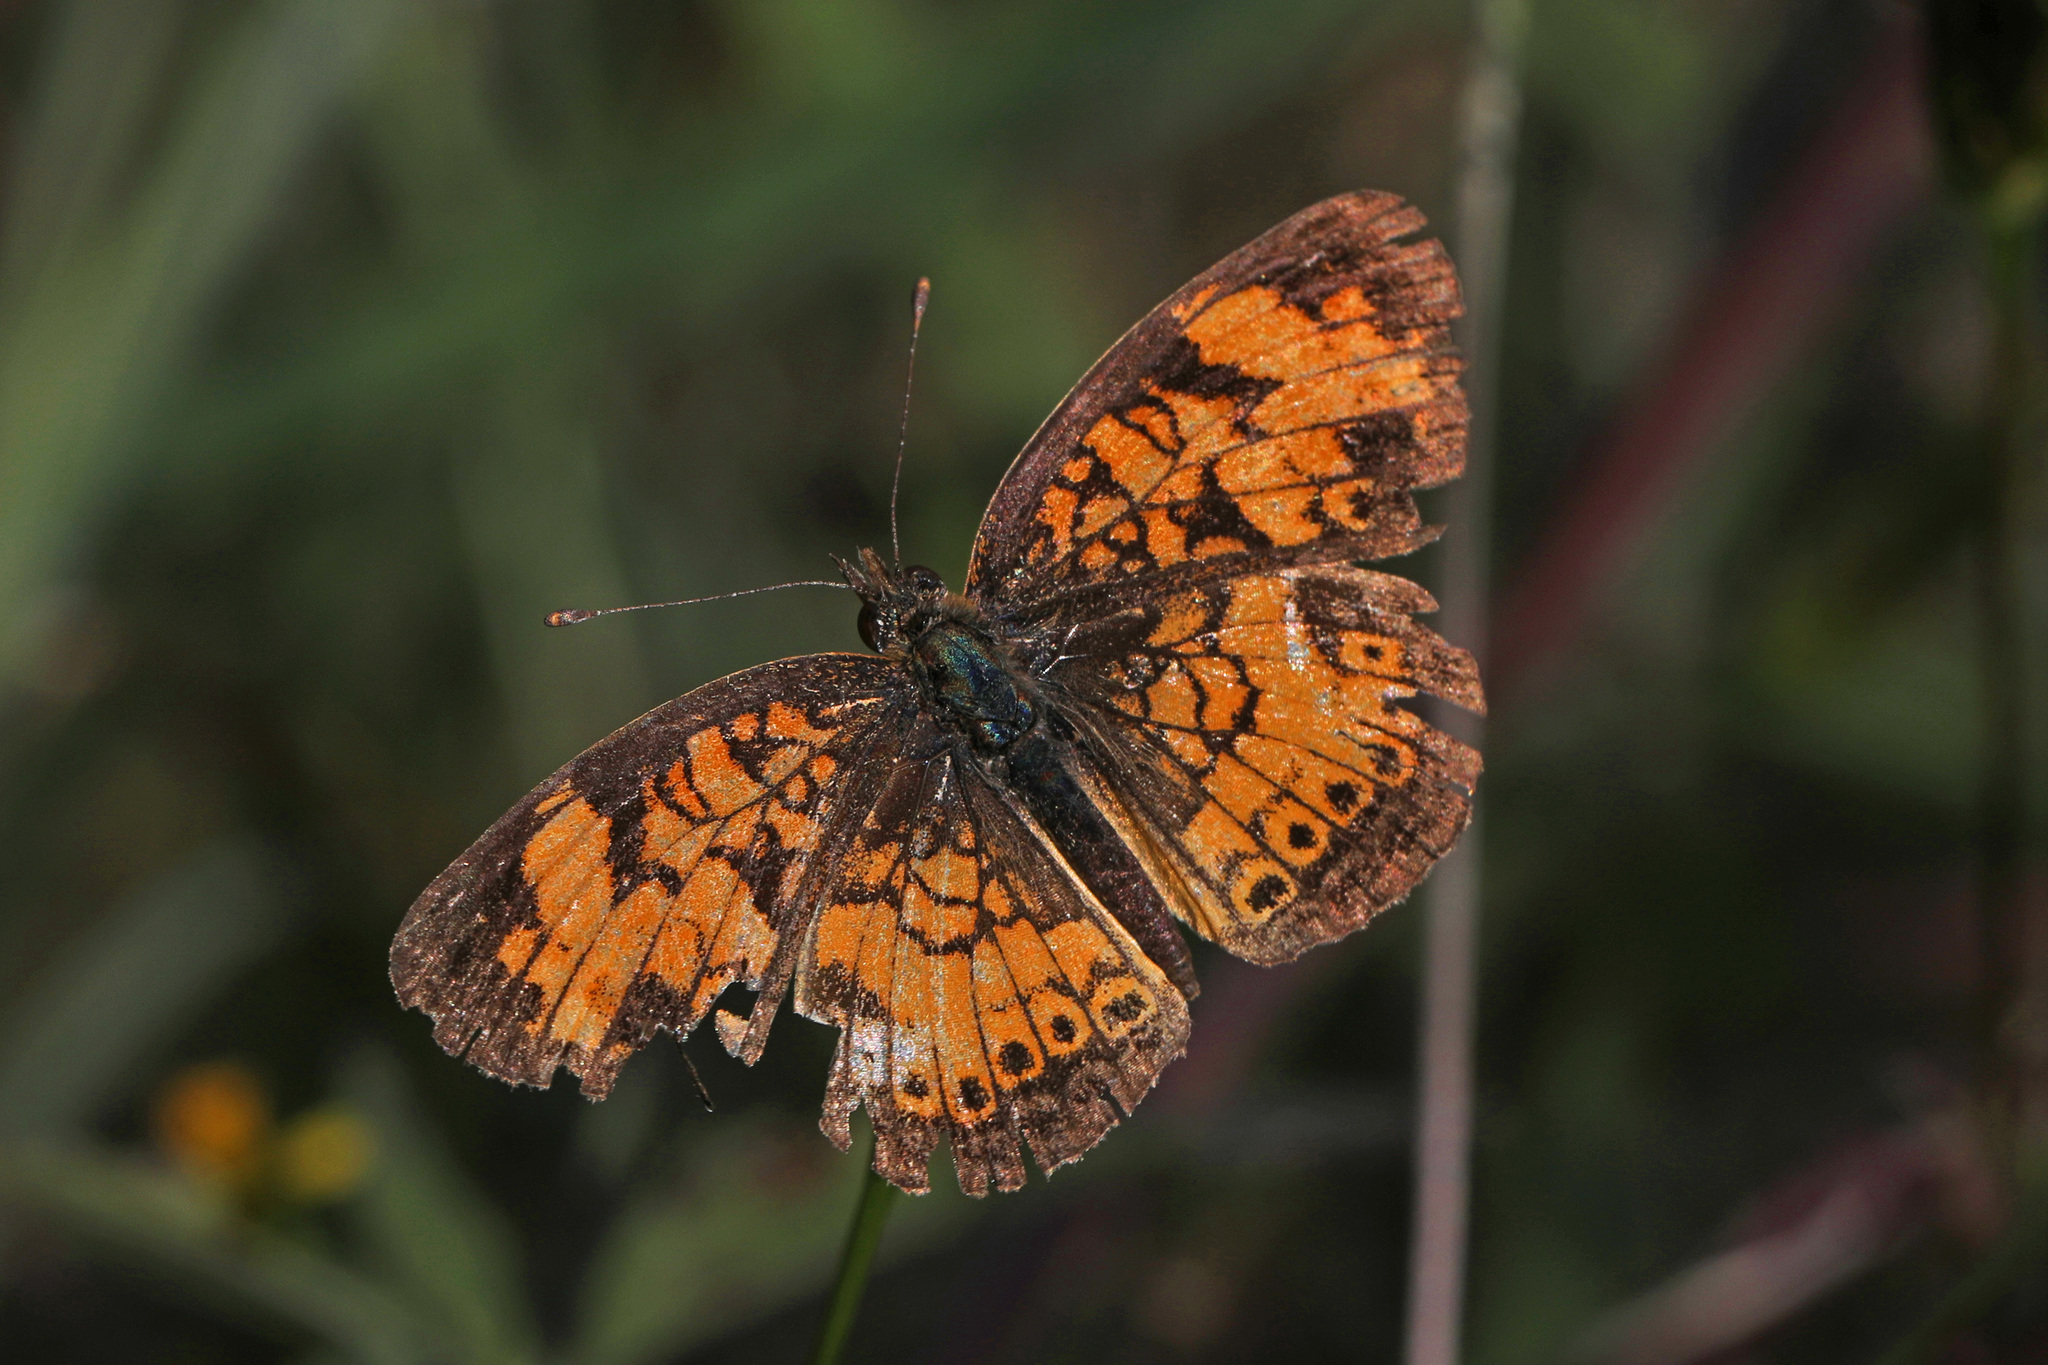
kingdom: Animalia
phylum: Arthropoda
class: Insecta
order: Lepidoptera
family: Nymphalidae
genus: Phyciodes
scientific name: Phyciodes tharos
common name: Pearl crescent
